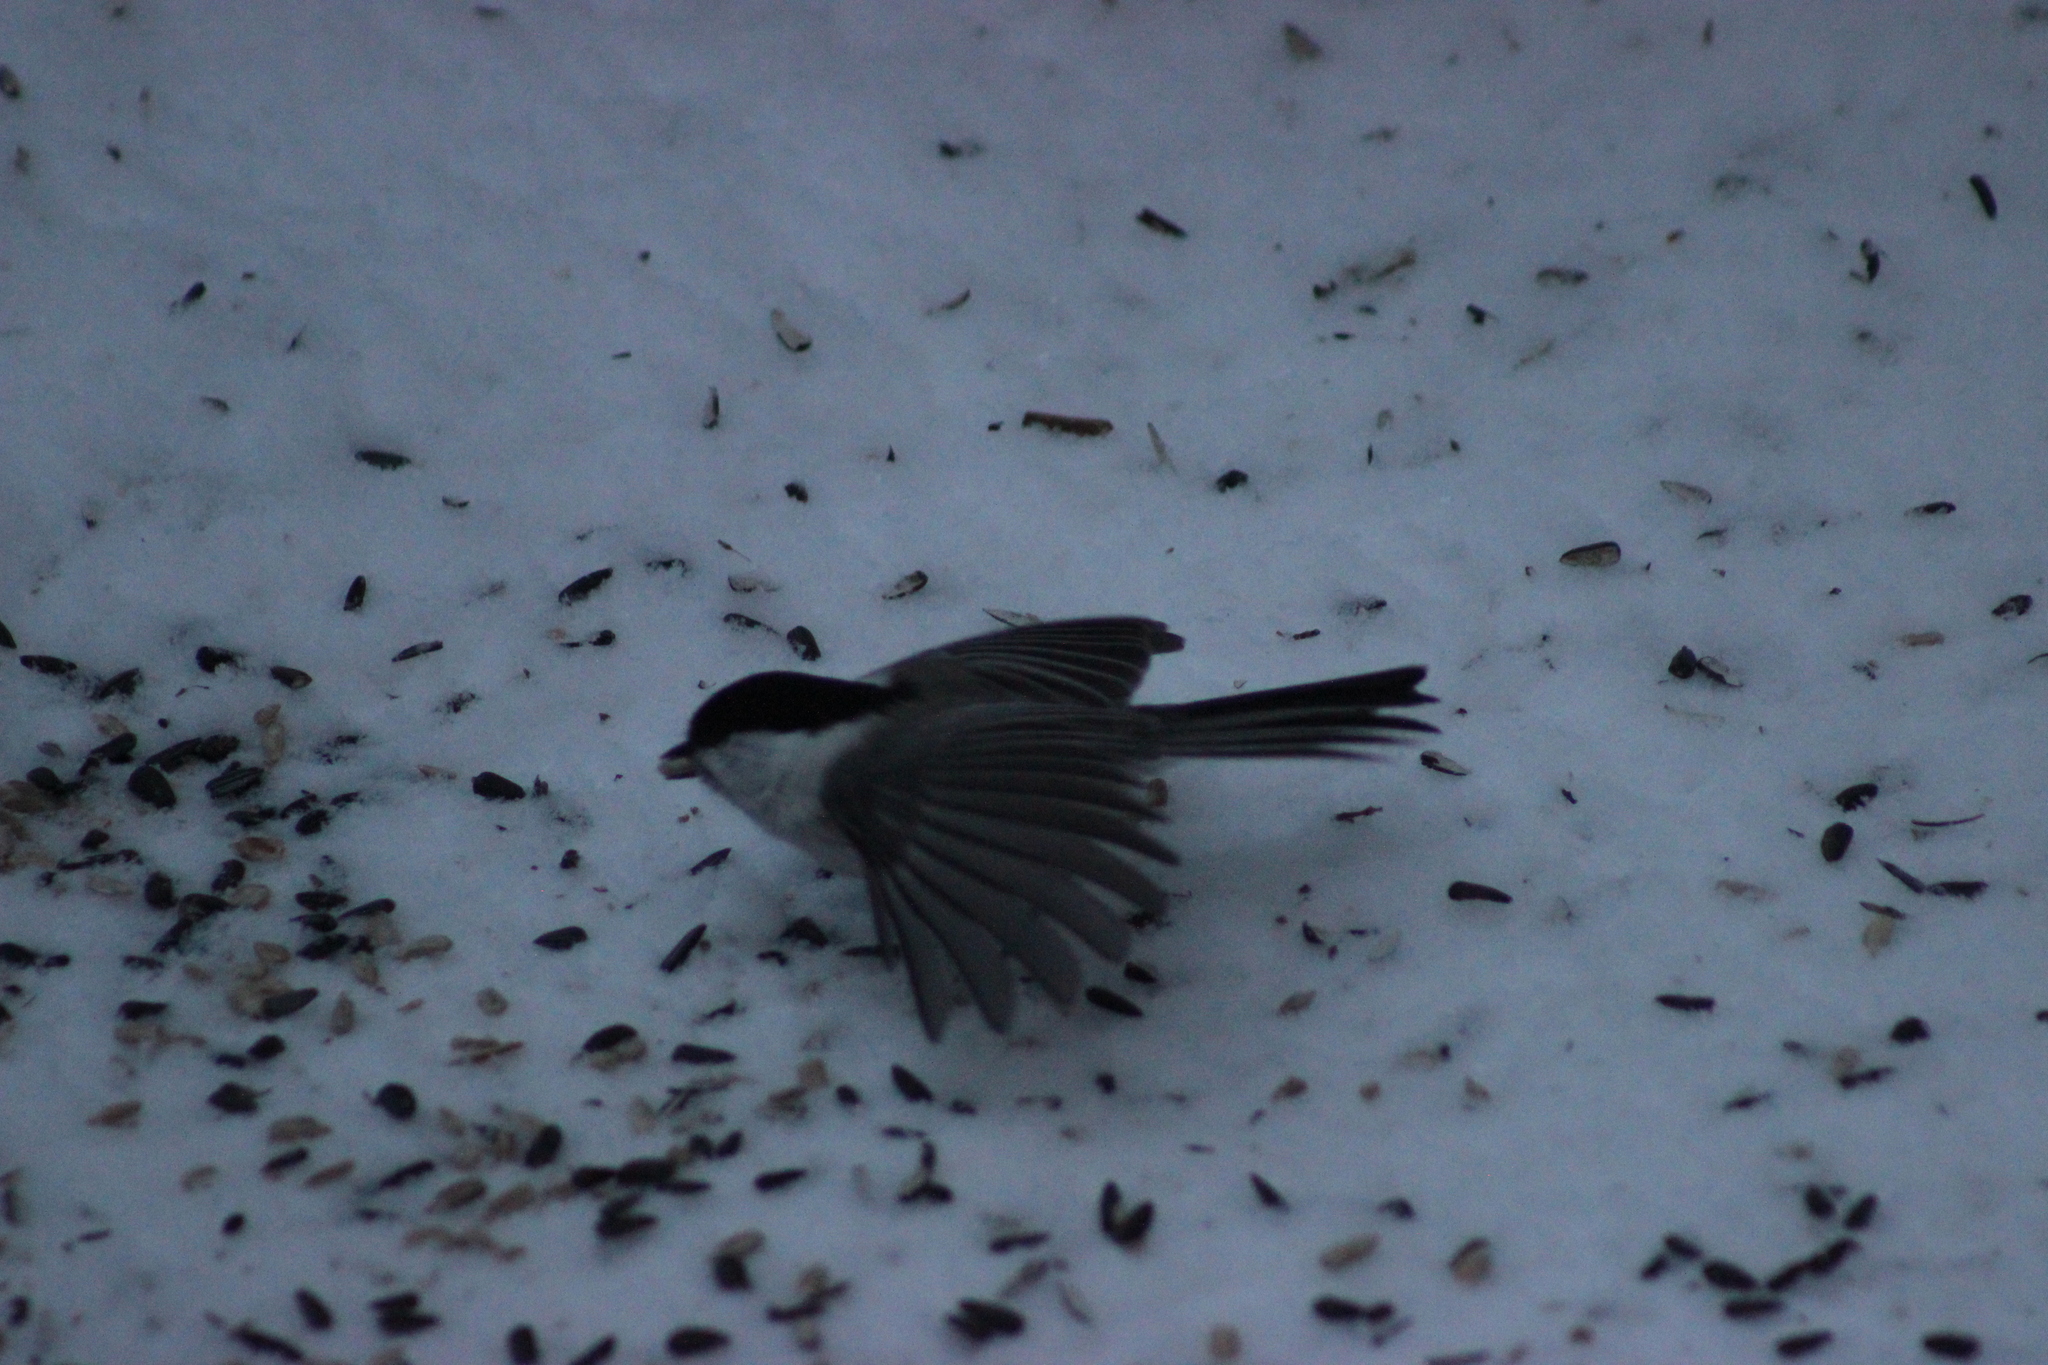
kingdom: Animalia
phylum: Chordata
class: Aves
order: Passeriformes
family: Paridae
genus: Poecile
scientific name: Poecile montanus
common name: Willow tit
